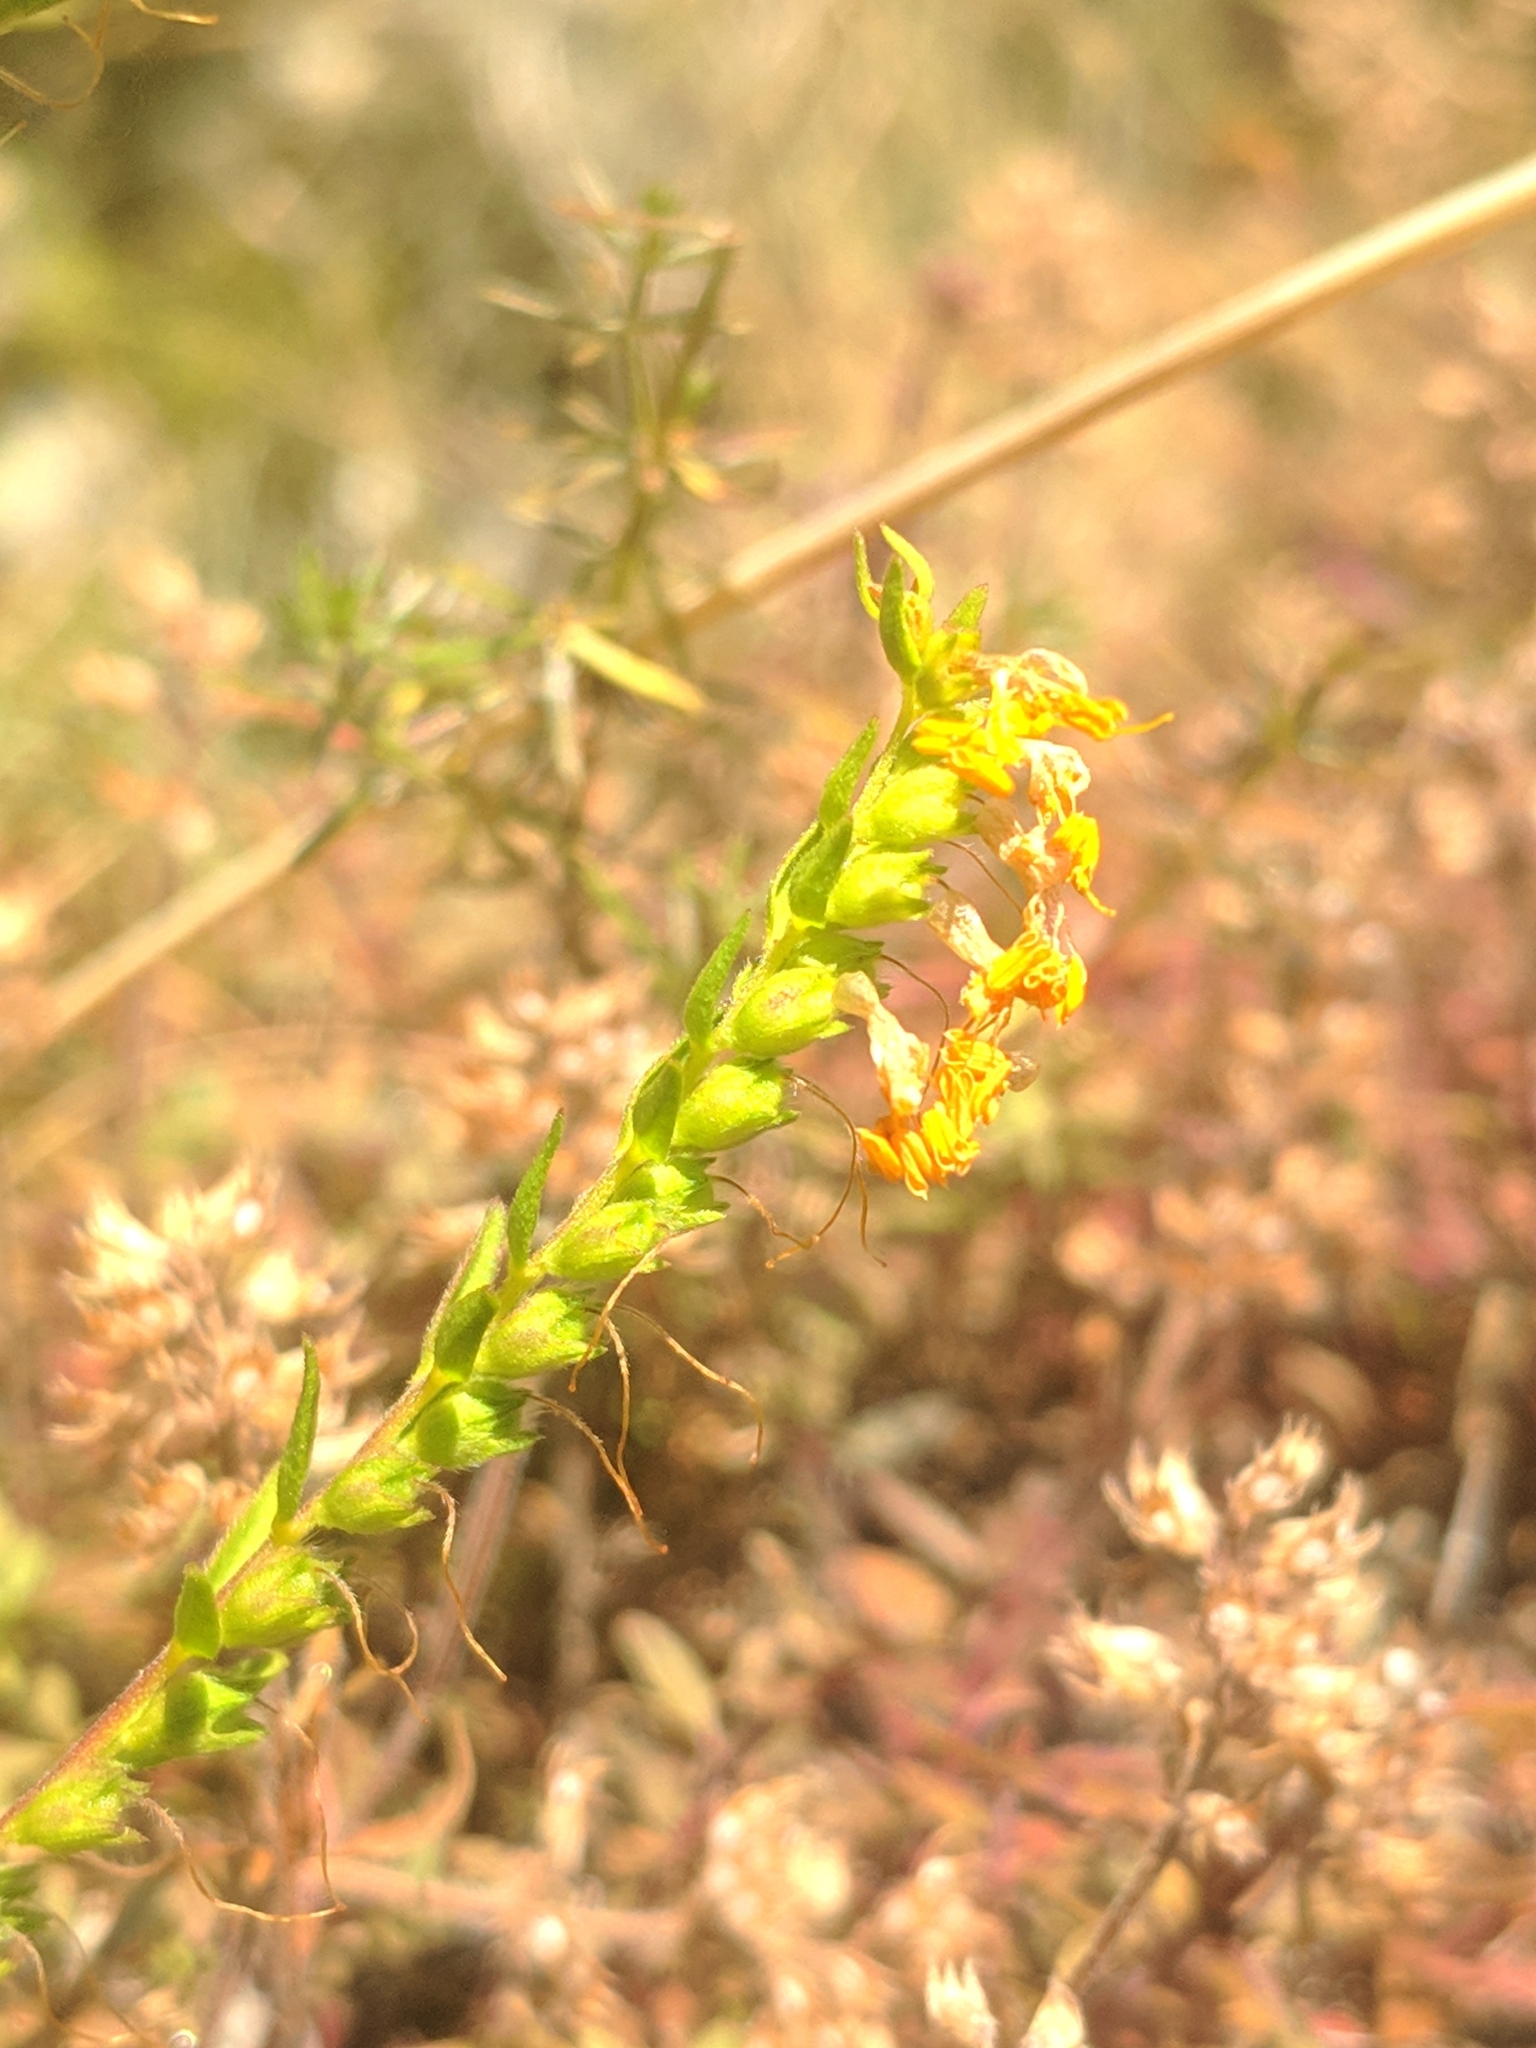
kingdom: Plantae
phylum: Tracheophyta
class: Magnoliopsida
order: Lamiales
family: Orobanchaceae
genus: Odontites
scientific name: Odontites luteus
